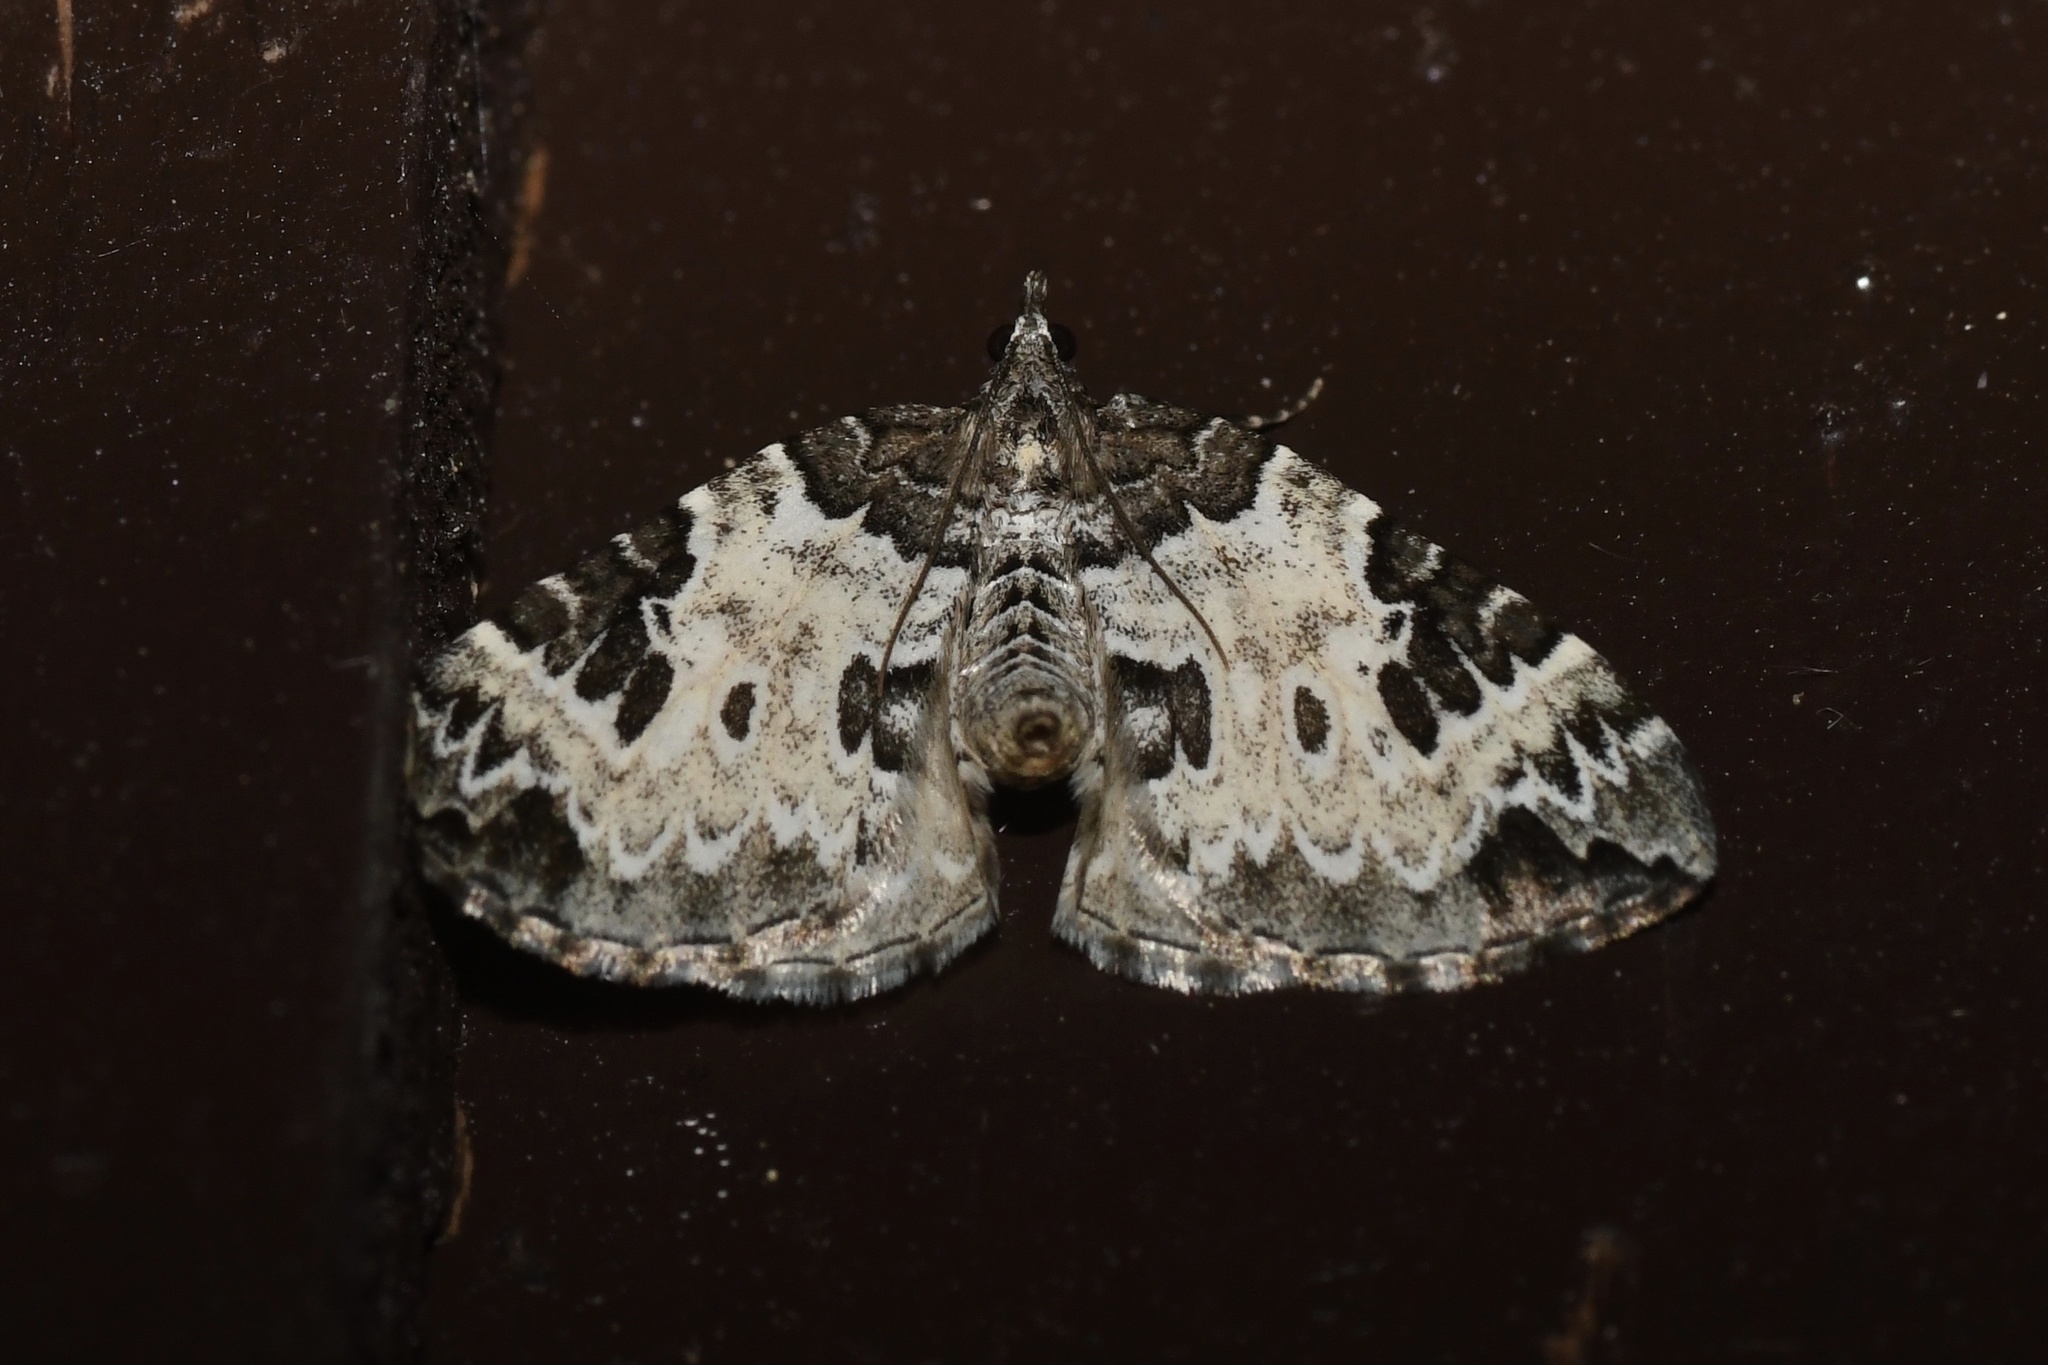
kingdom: Animalia
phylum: Arthropoda
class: Insecta
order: Lepidoptera
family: Geometridae
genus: Eulithis
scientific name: Eulithis explanata
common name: White eulithis
